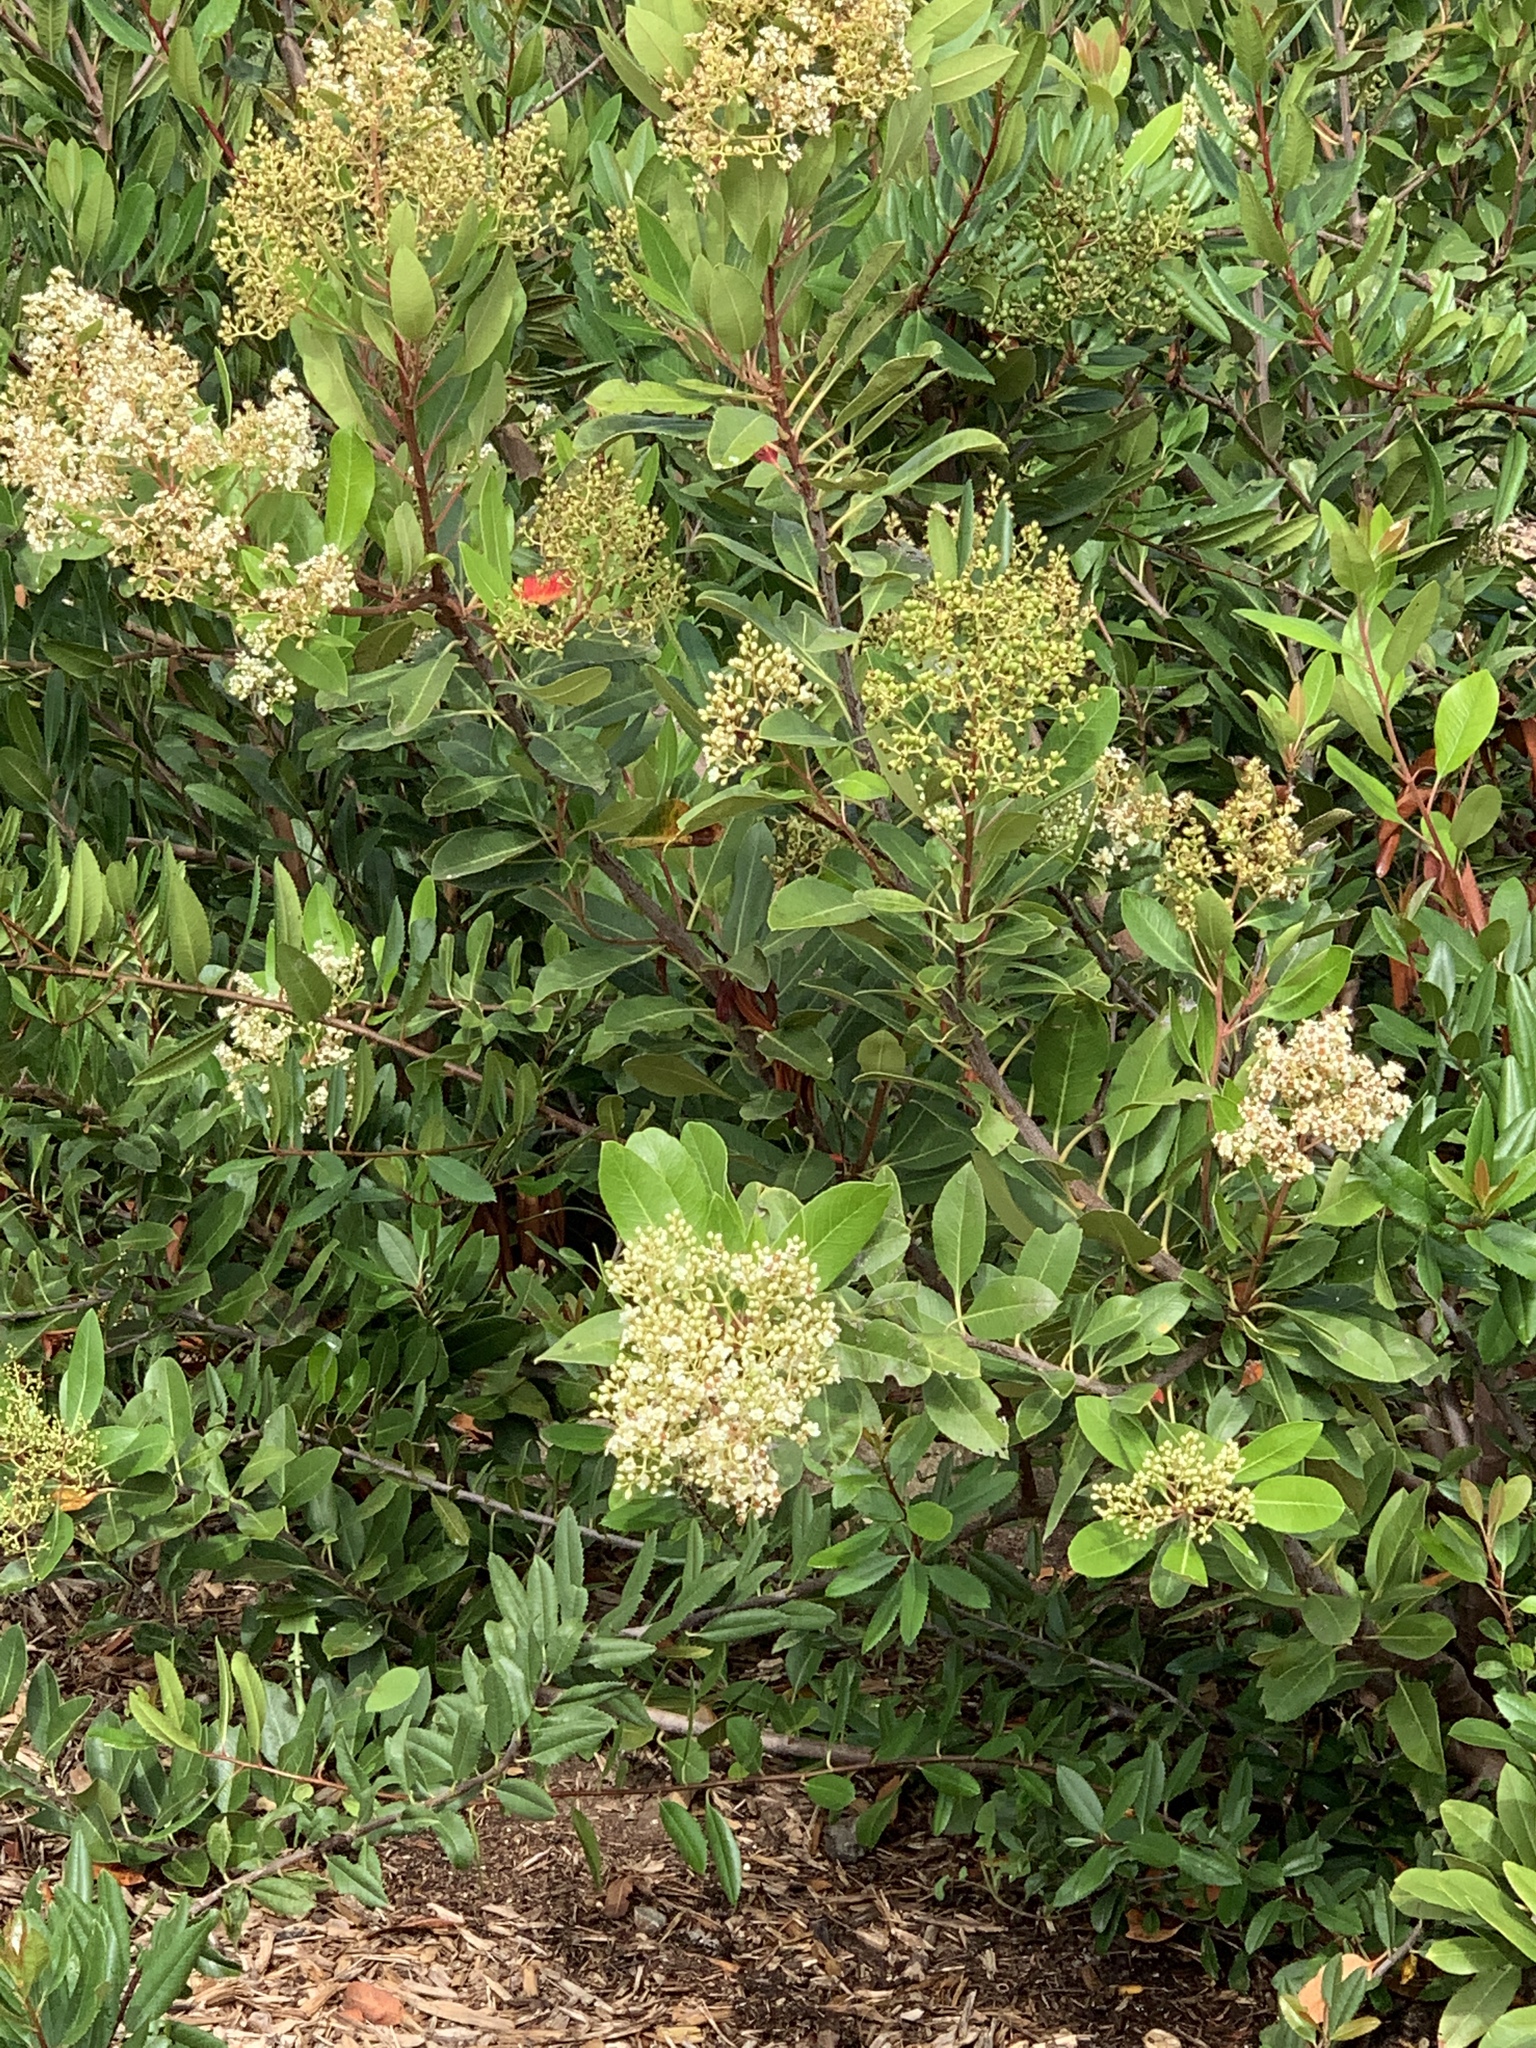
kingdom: Plantae
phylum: Tracheophyta
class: Magnoliopsida
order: Sapindales
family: Anacardiaceae
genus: Malosma
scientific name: Malosma laurina
